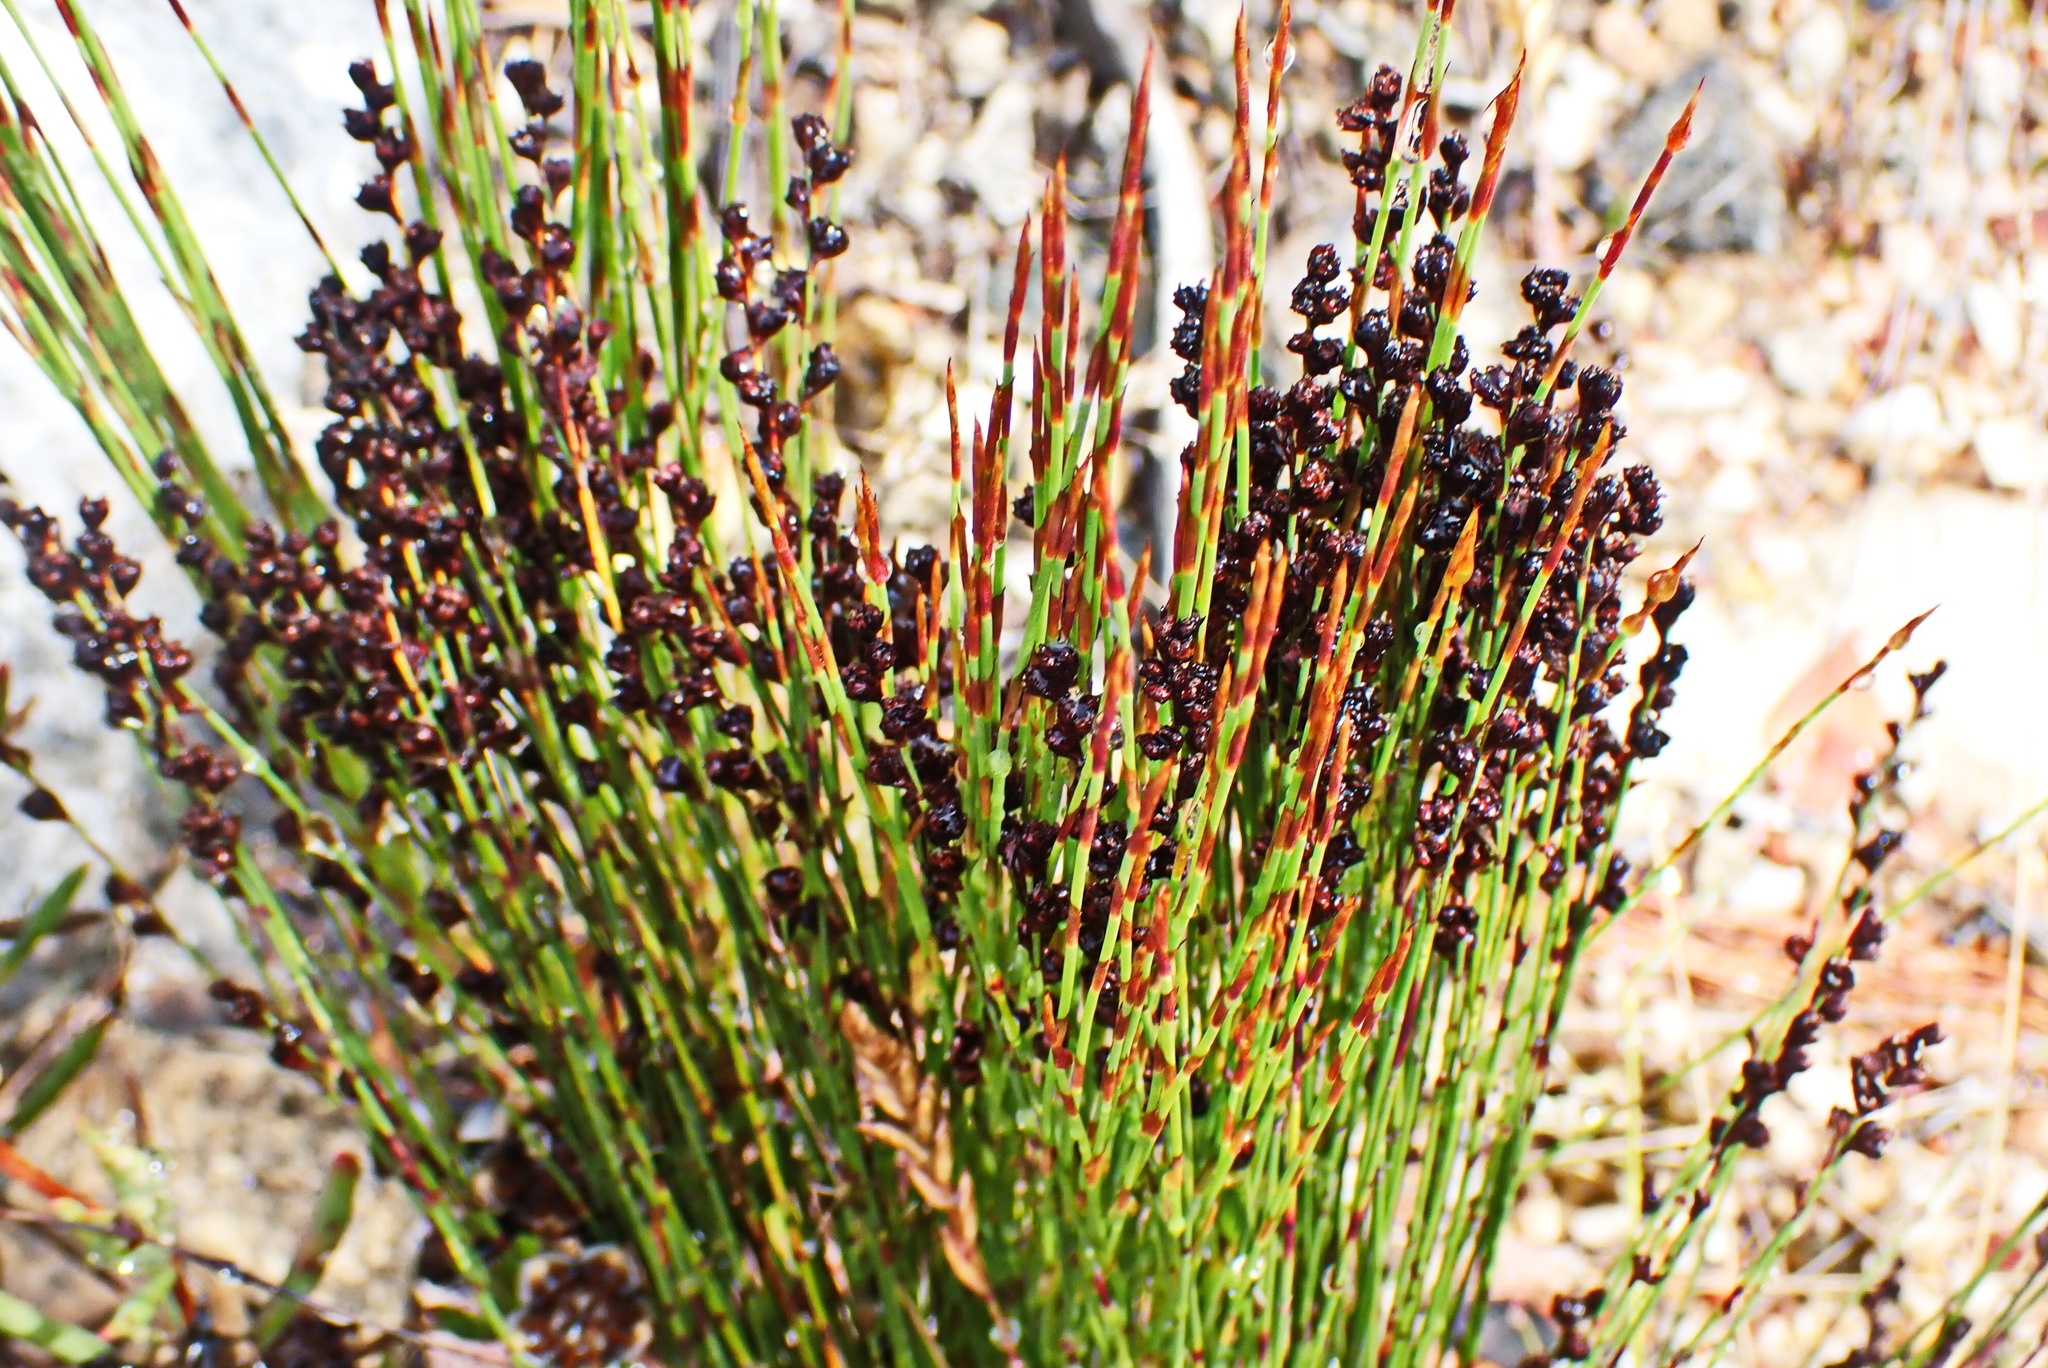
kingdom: Plantae
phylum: Tracheophyta
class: Liliopsida
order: Poales
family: Restionaceae
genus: Elegia
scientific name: Elegia microcarpa
